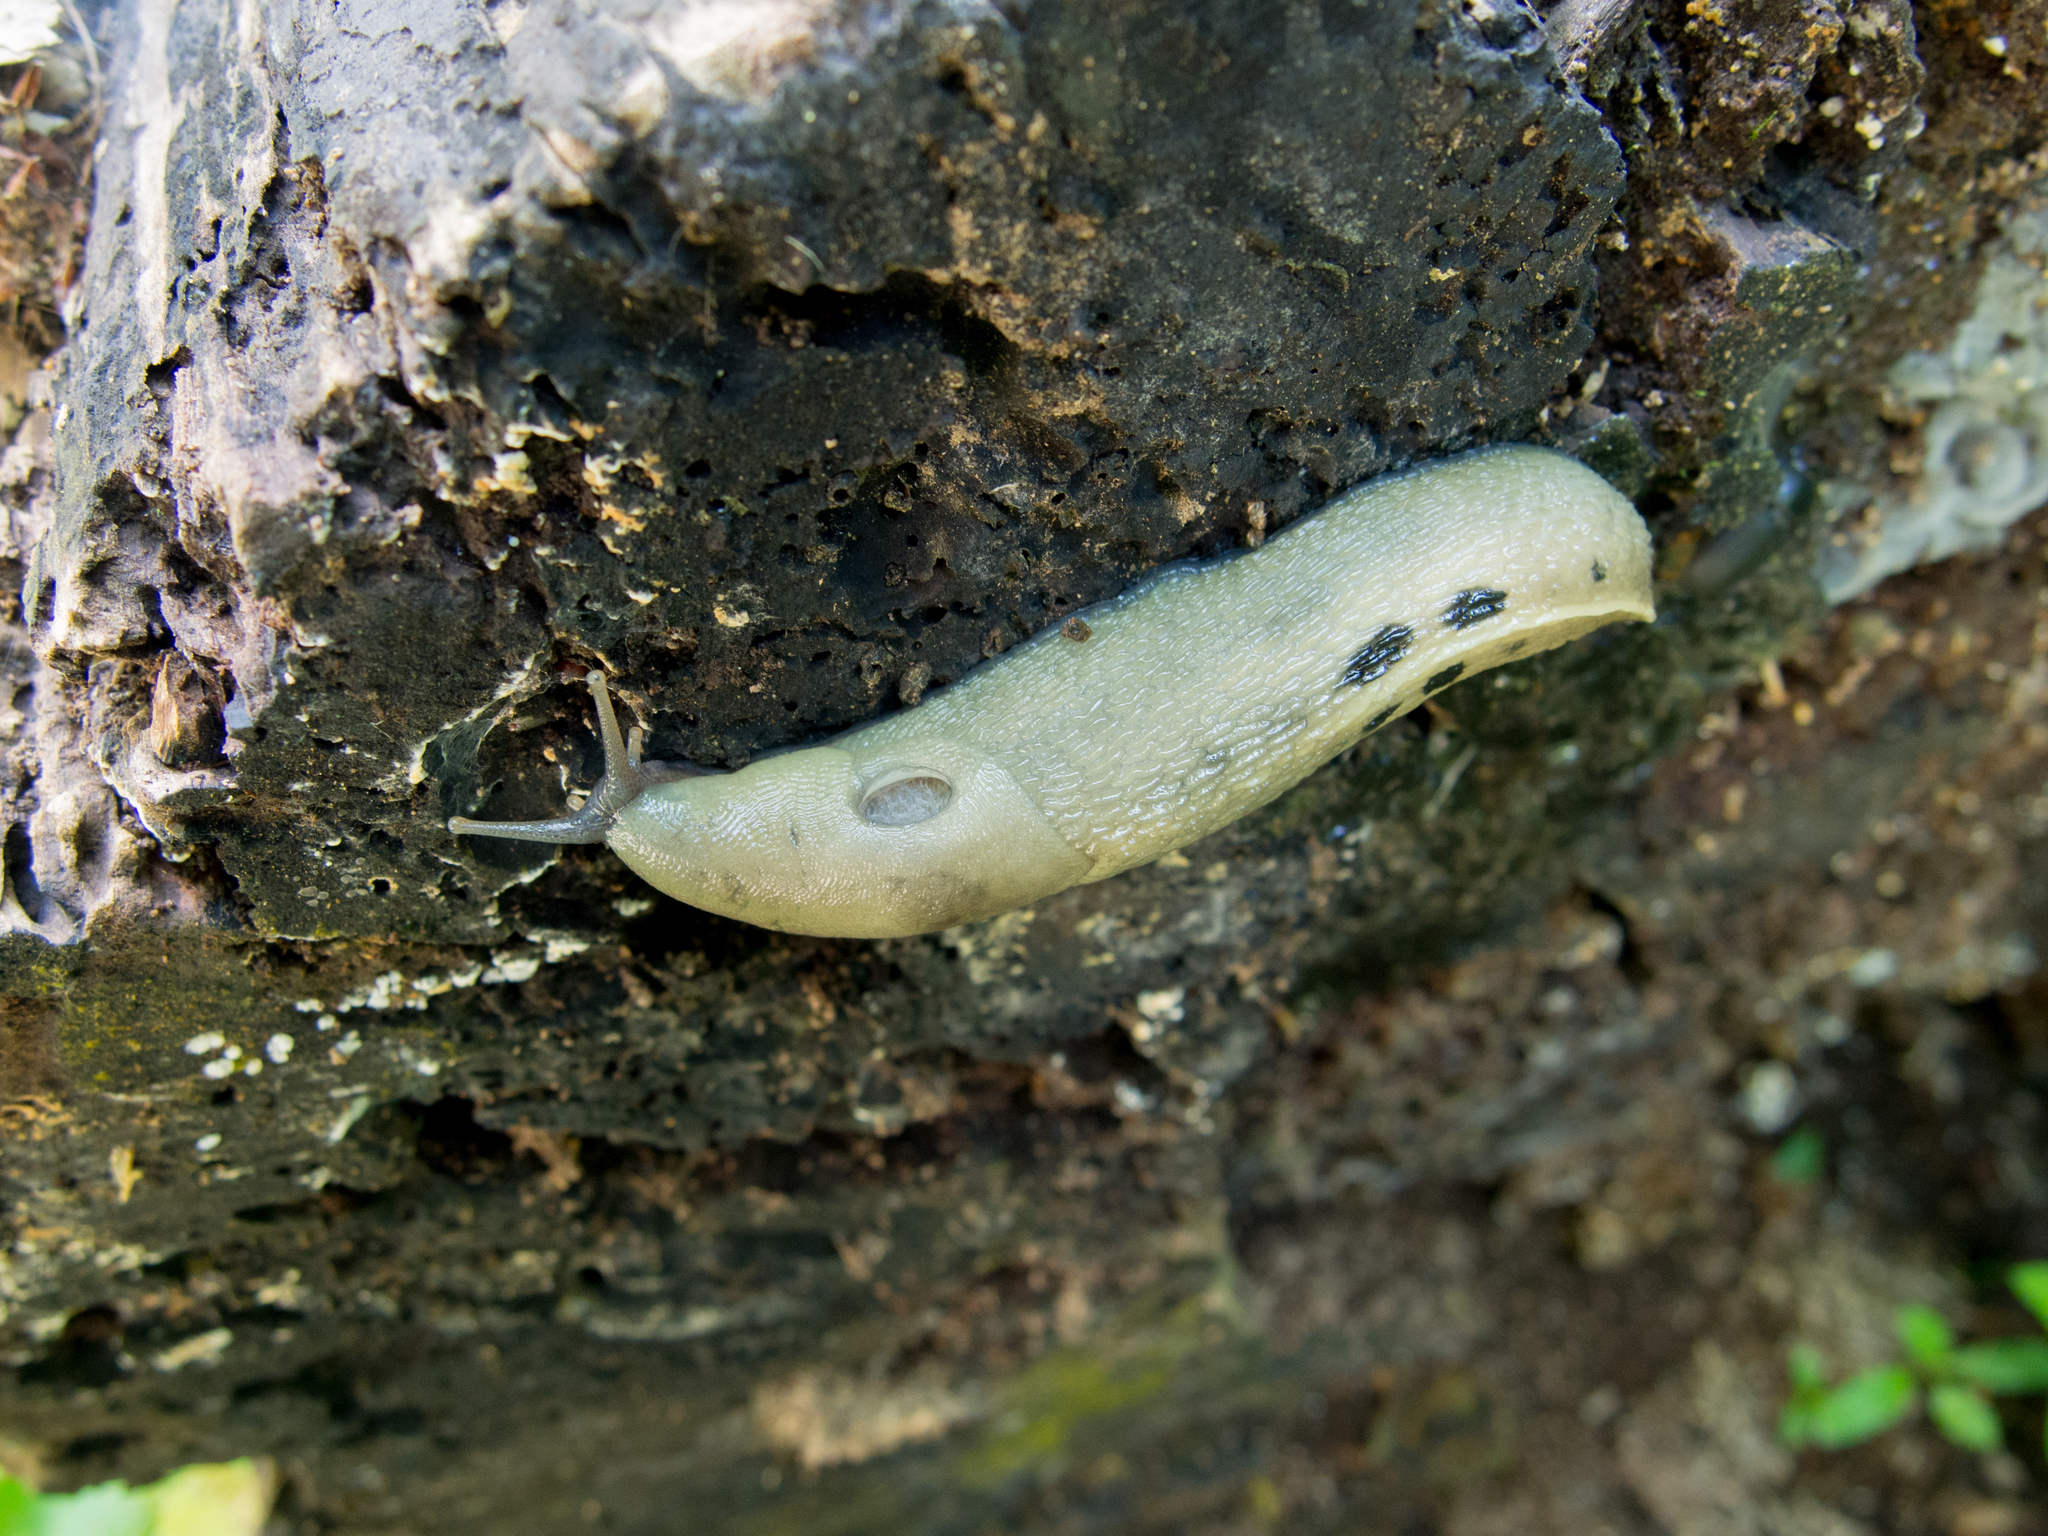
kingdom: Animalia
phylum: Mollusca
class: Gastropoda
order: Stylommatophora
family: Limacidae
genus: Limax
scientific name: Limax cinereoniger
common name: Ash-black slug
